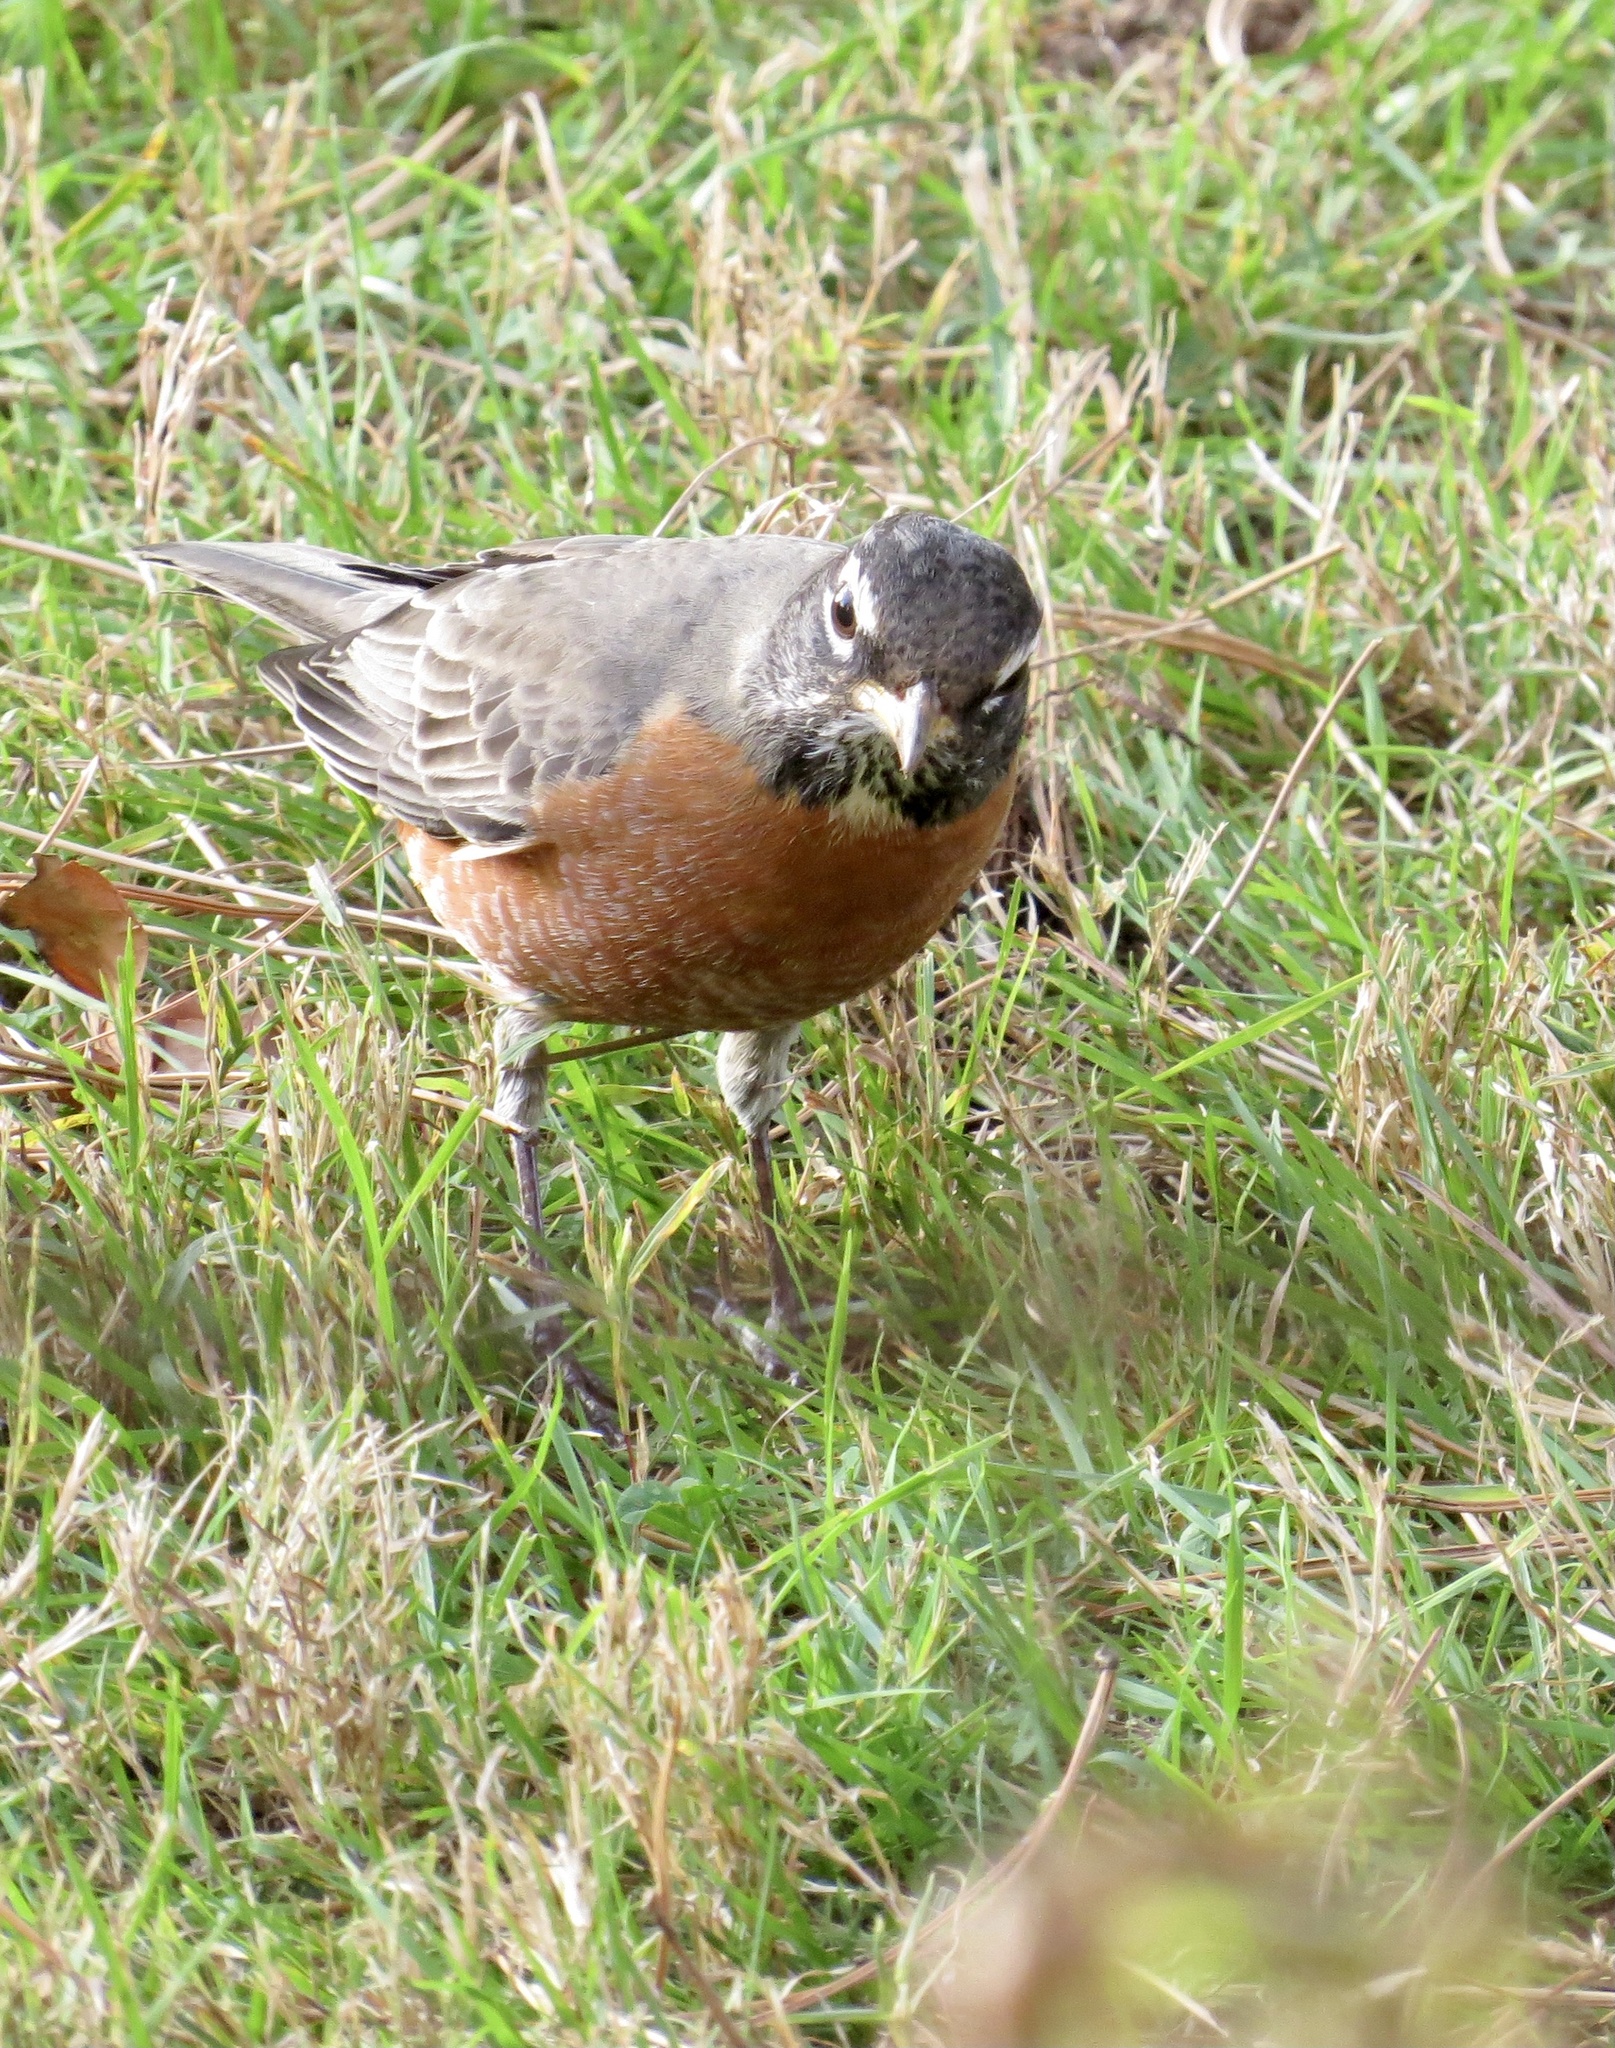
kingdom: Animalia
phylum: Chordata
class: Aves
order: Passeriformes
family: Turdidae
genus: Turdus
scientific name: Turdus migratorius
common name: American robin
